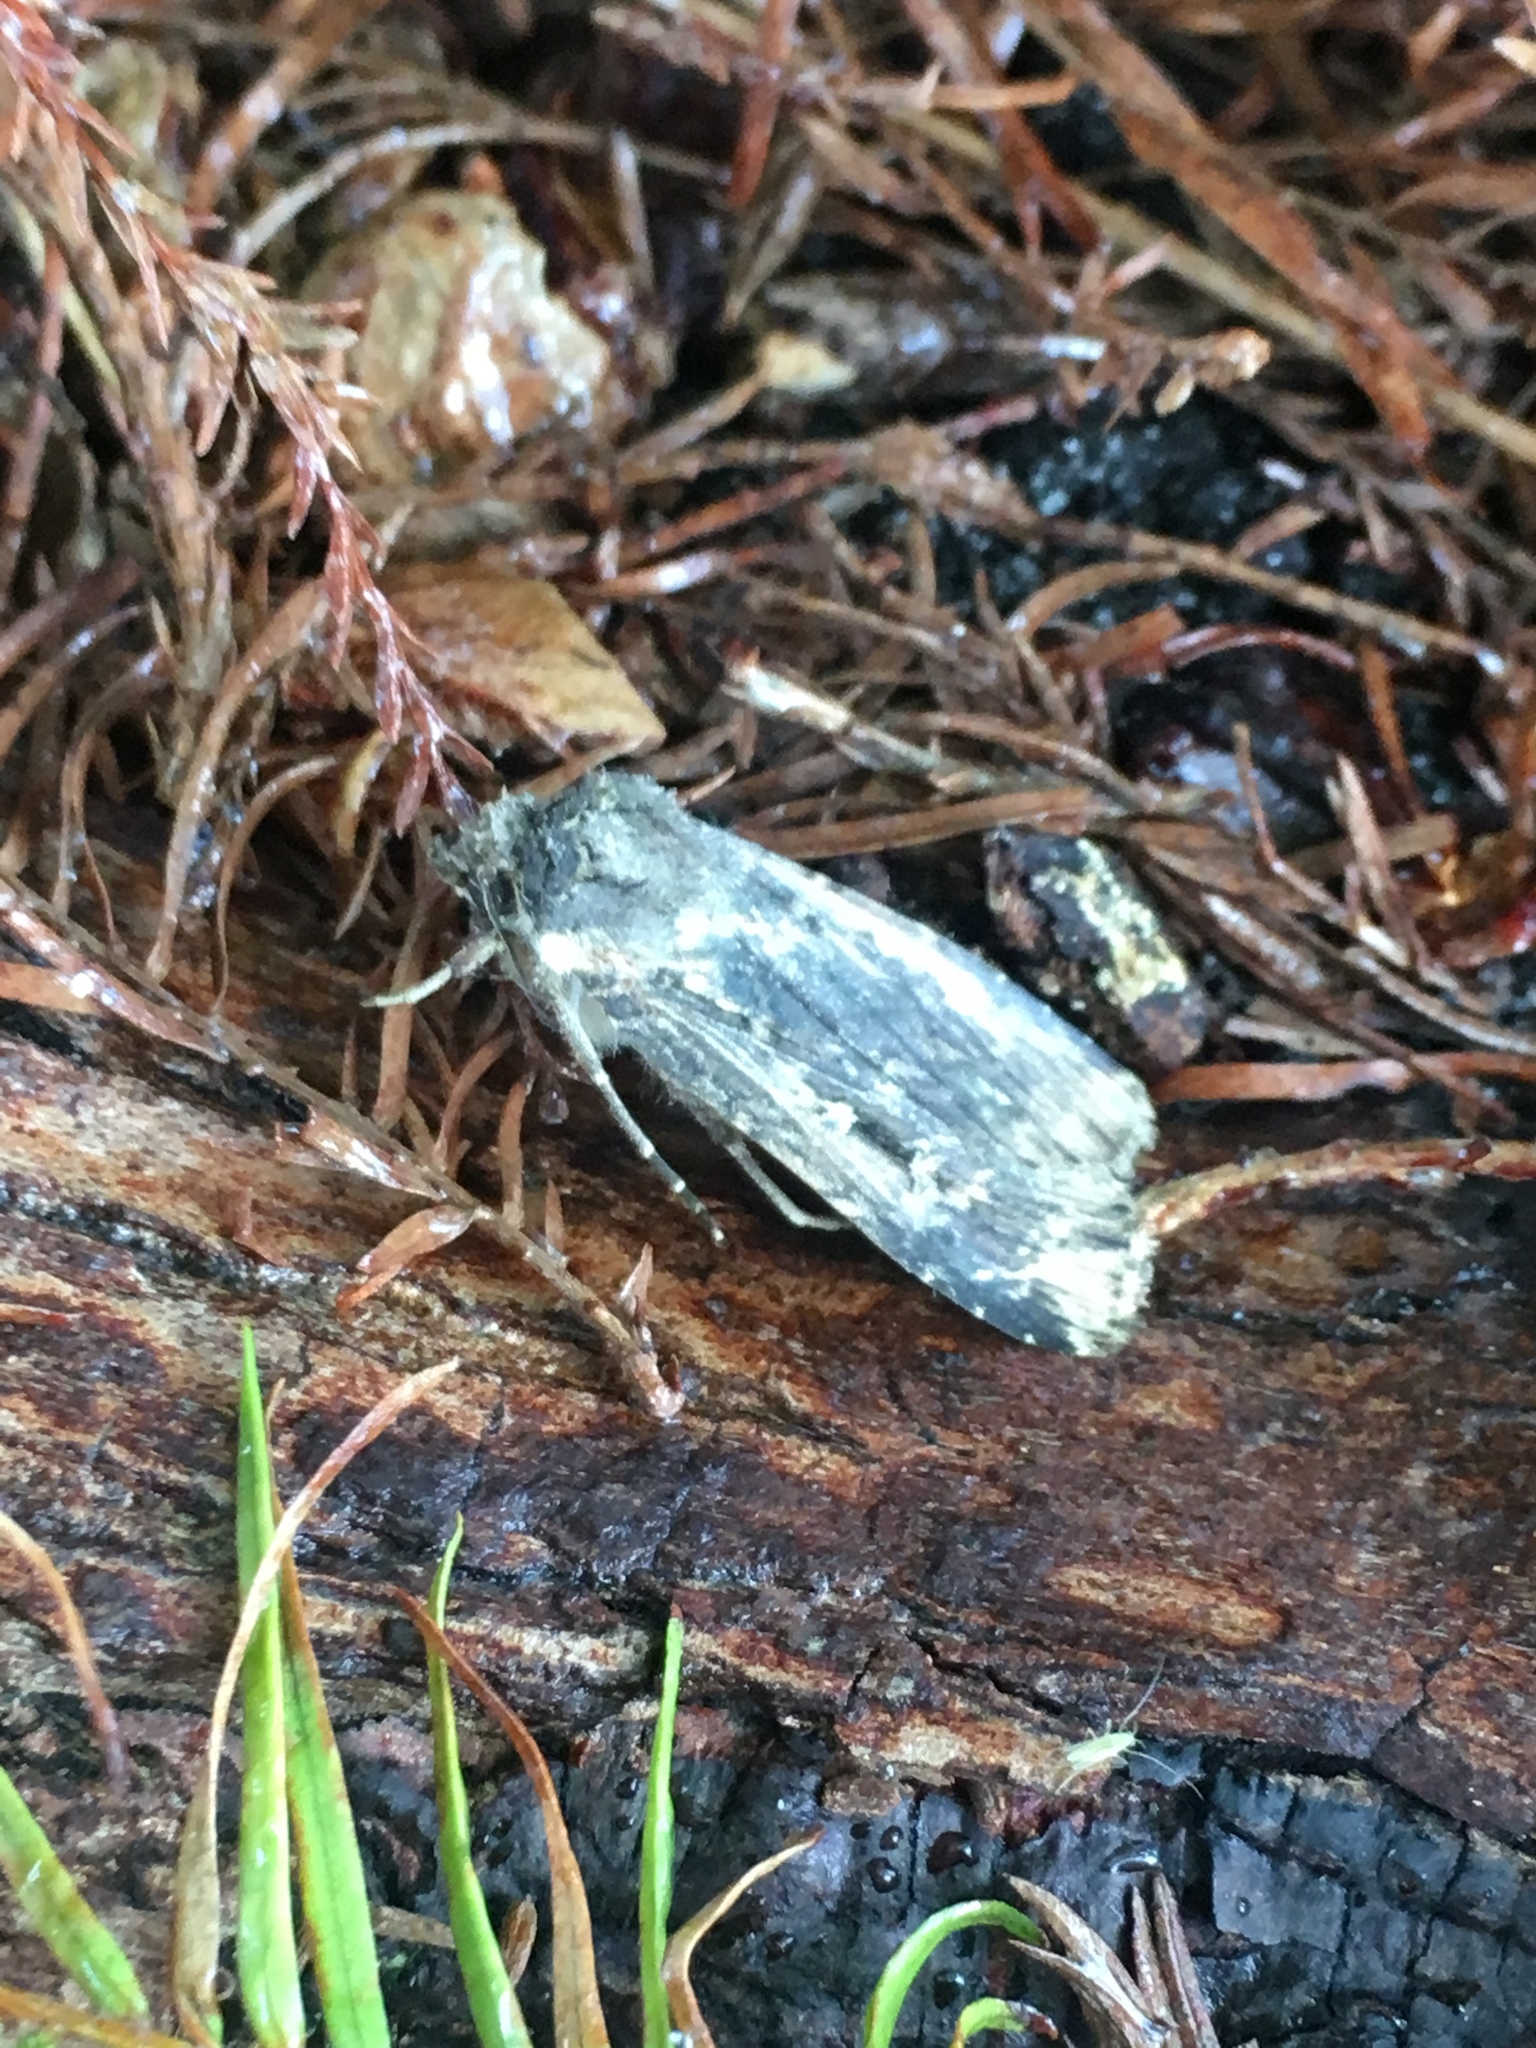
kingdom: Animalia
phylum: Arthropoda
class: Insecta
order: Lepidoptera
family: Noctuidae
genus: Feltia
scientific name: Feltia subterranea
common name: Granulate cutworm
